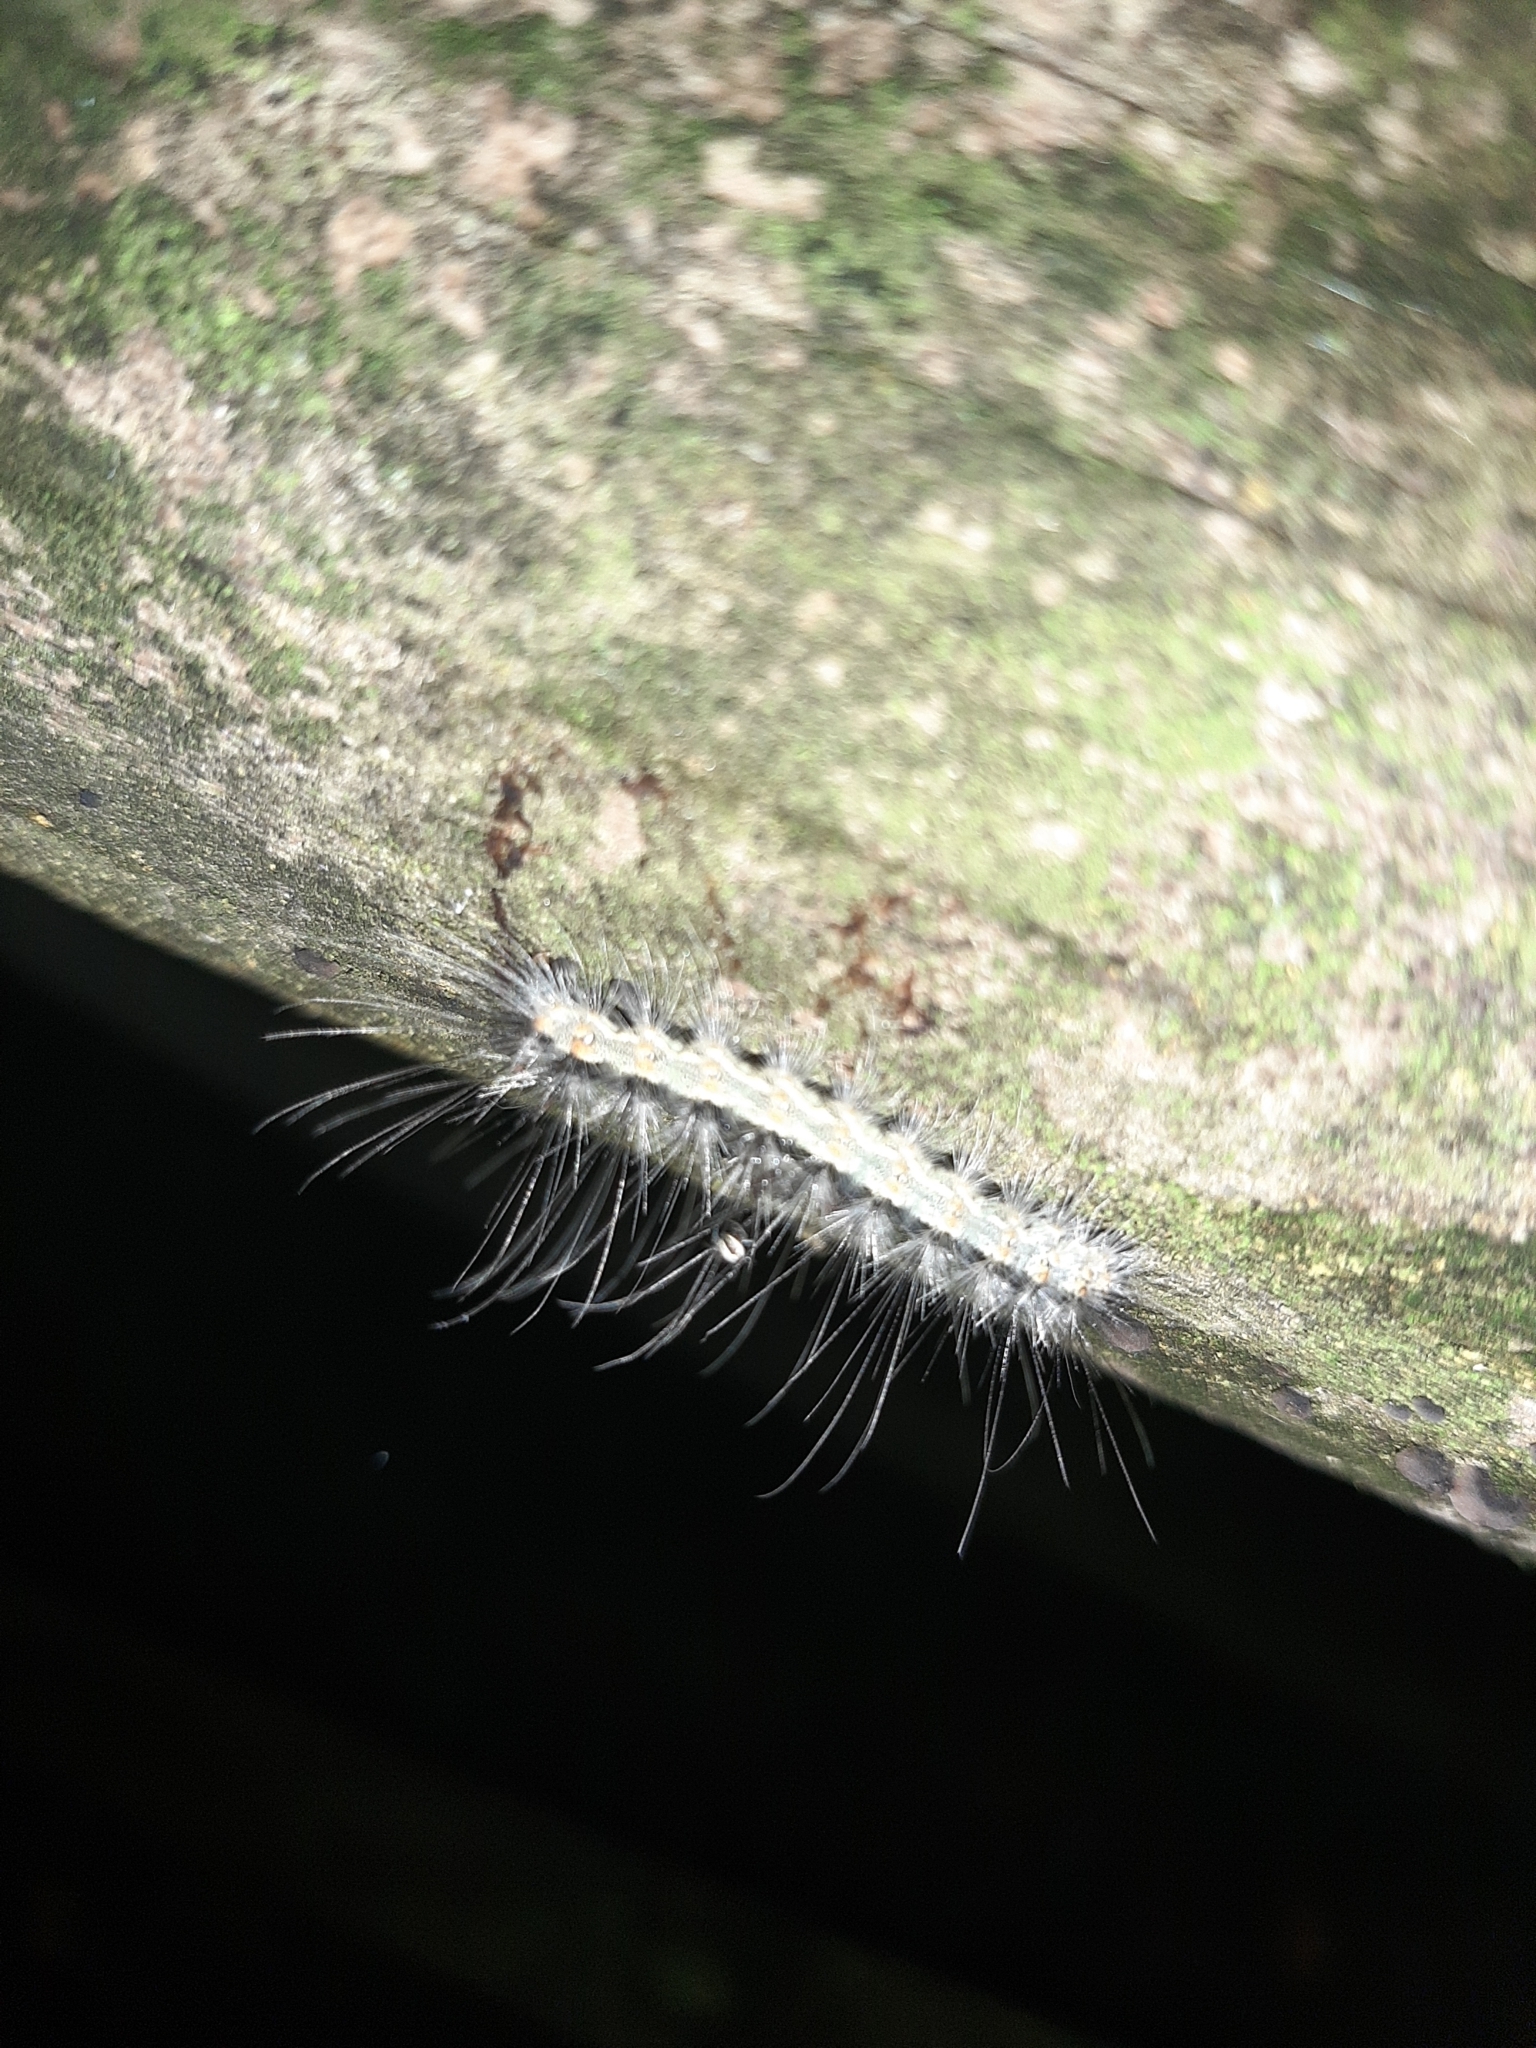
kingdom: Animalia
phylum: Arthropoda
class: Insecta
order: Lepidoptera
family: Erebidae
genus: Hyphantria
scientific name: Hyphantria cunea
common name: American white moth
